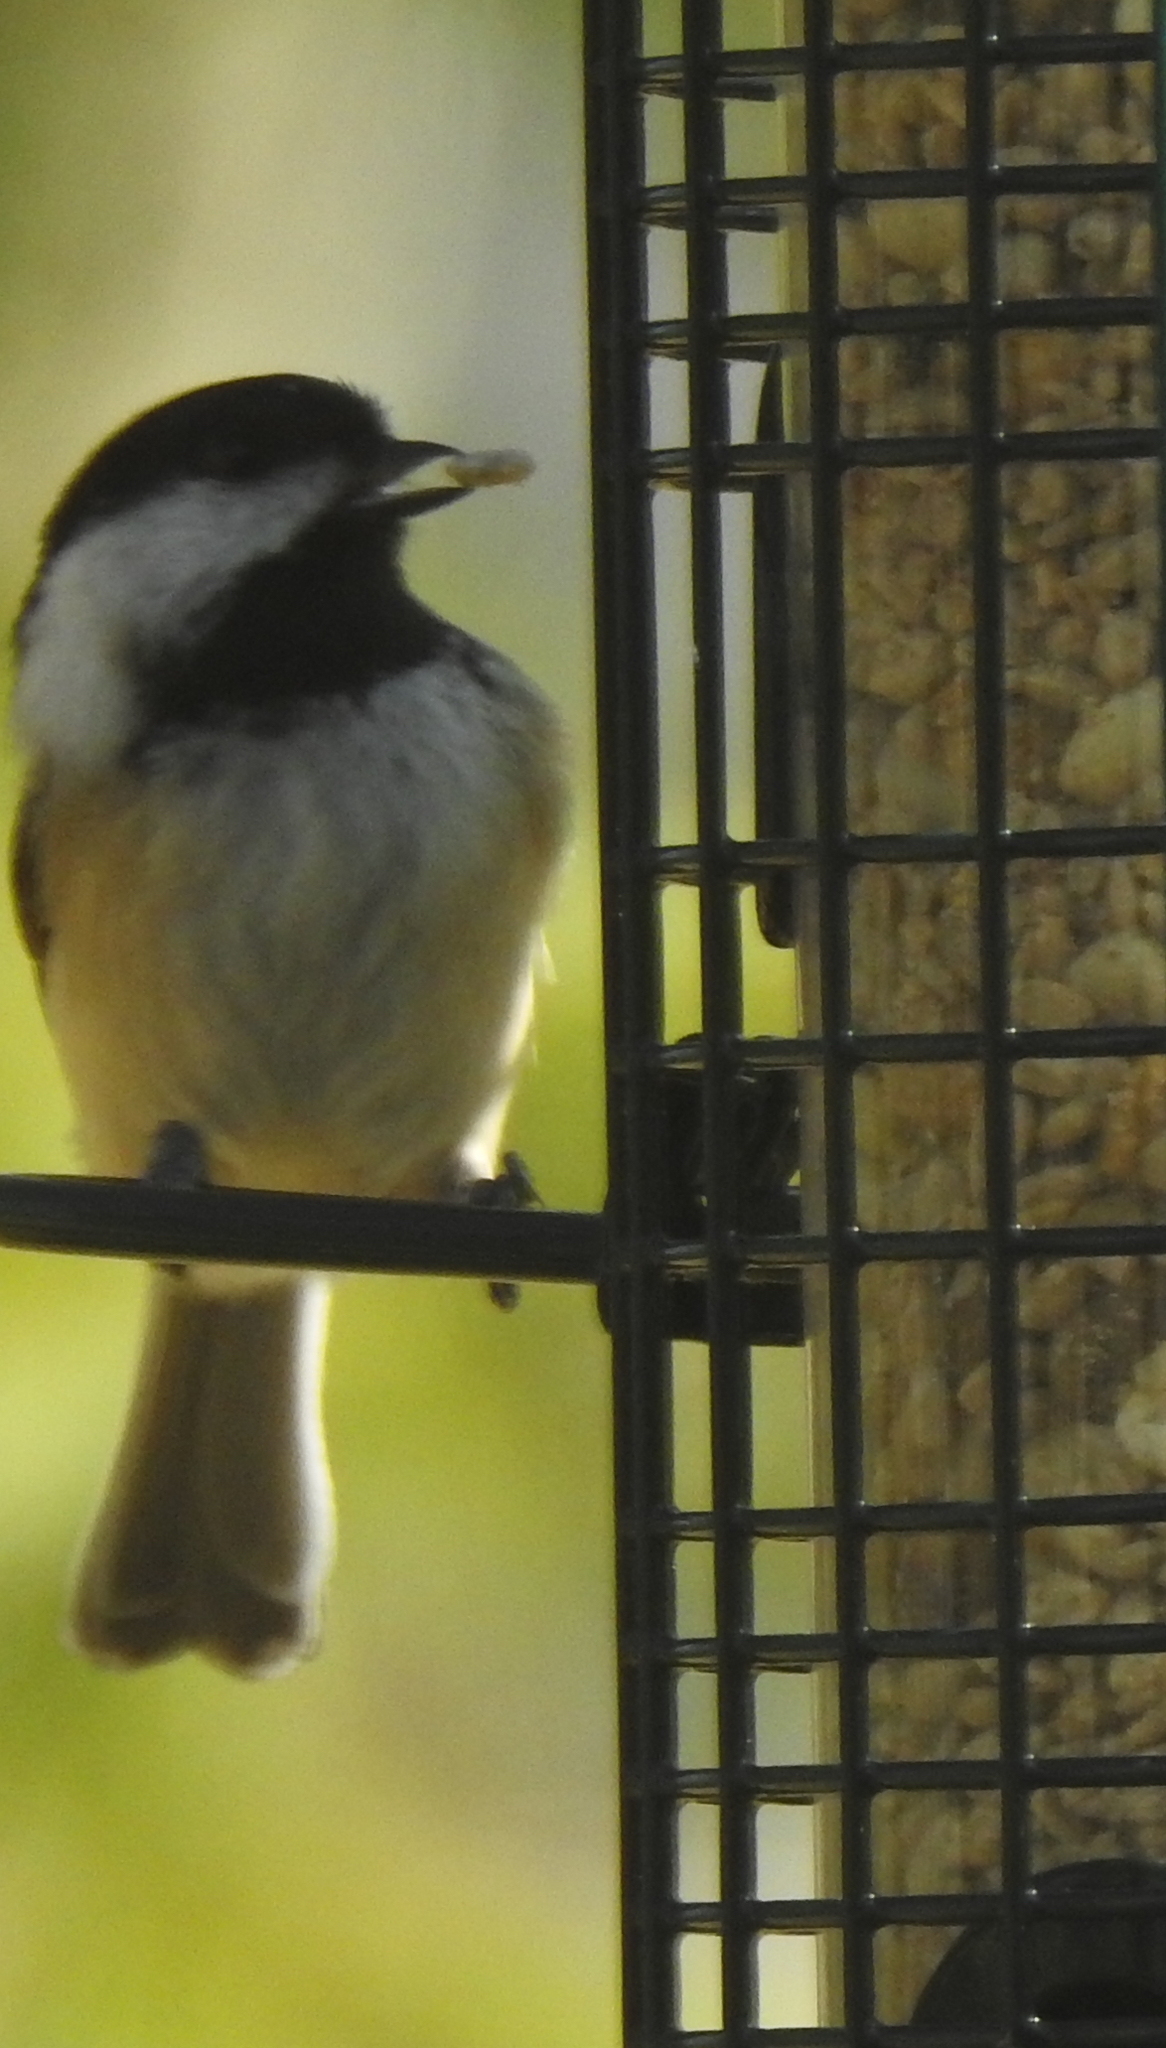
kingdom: Animalia
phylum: Chordata
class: Aves
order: Passeriformes
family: Paridae
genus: Poecile
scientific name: Poecile atricapillus
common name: Black-capped chickadee
